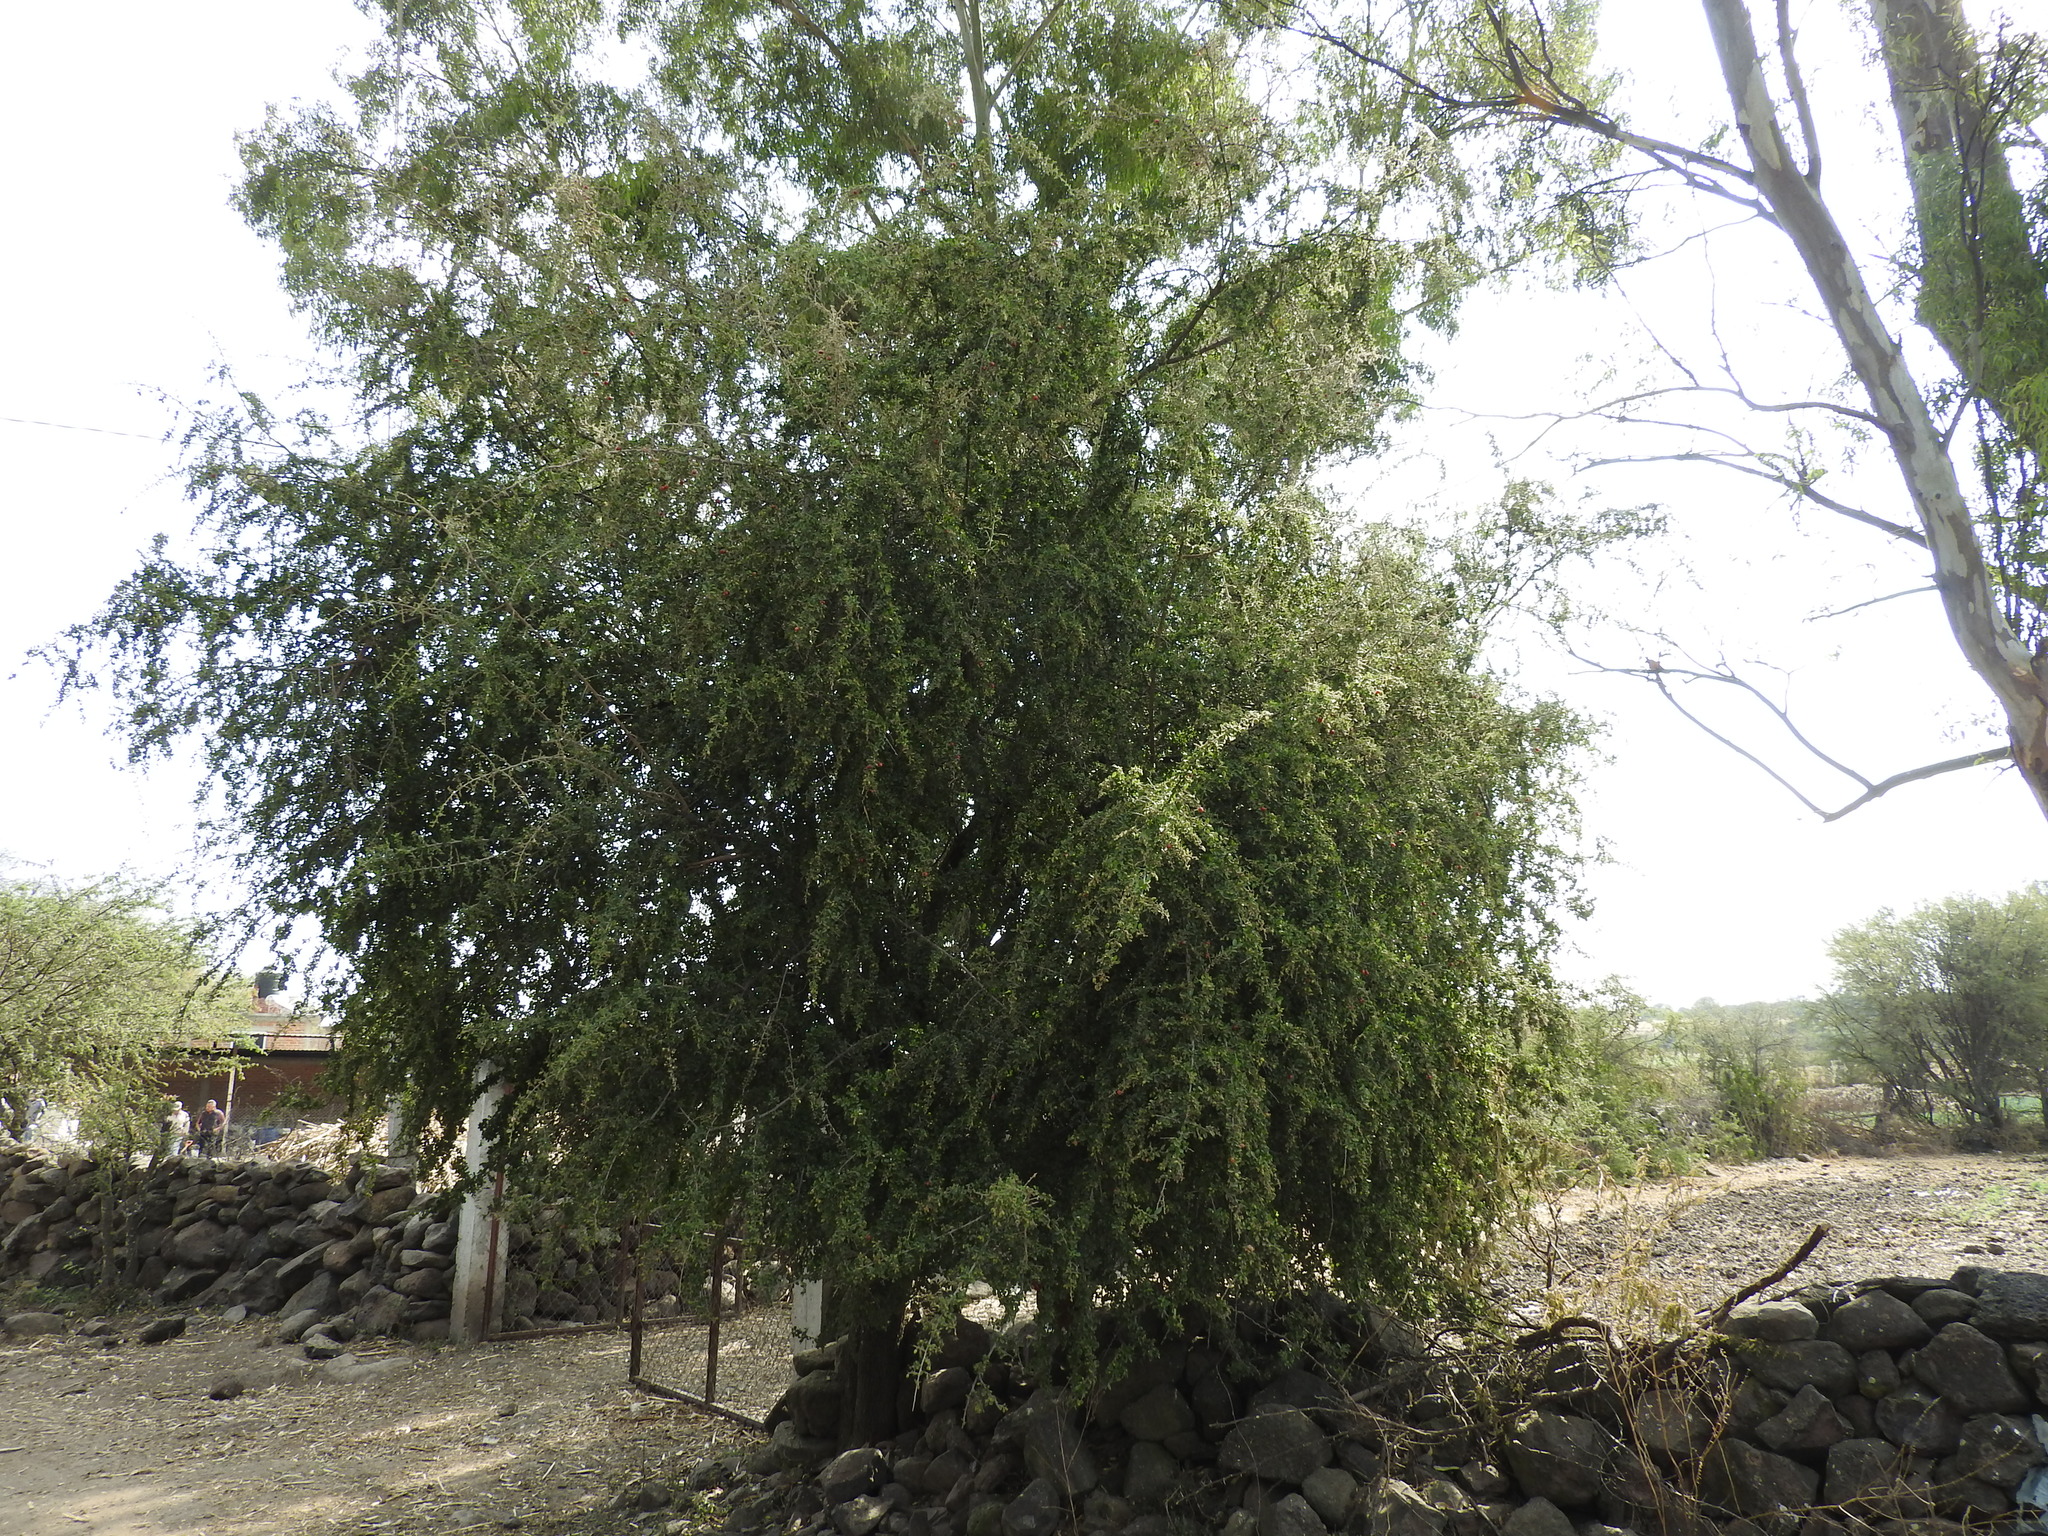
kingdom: Plantae
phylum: Tracheophyta
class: Magnoliopsida
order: Rosales
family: Rhamnaceae
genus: Condalia
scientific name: Condalia velutina
